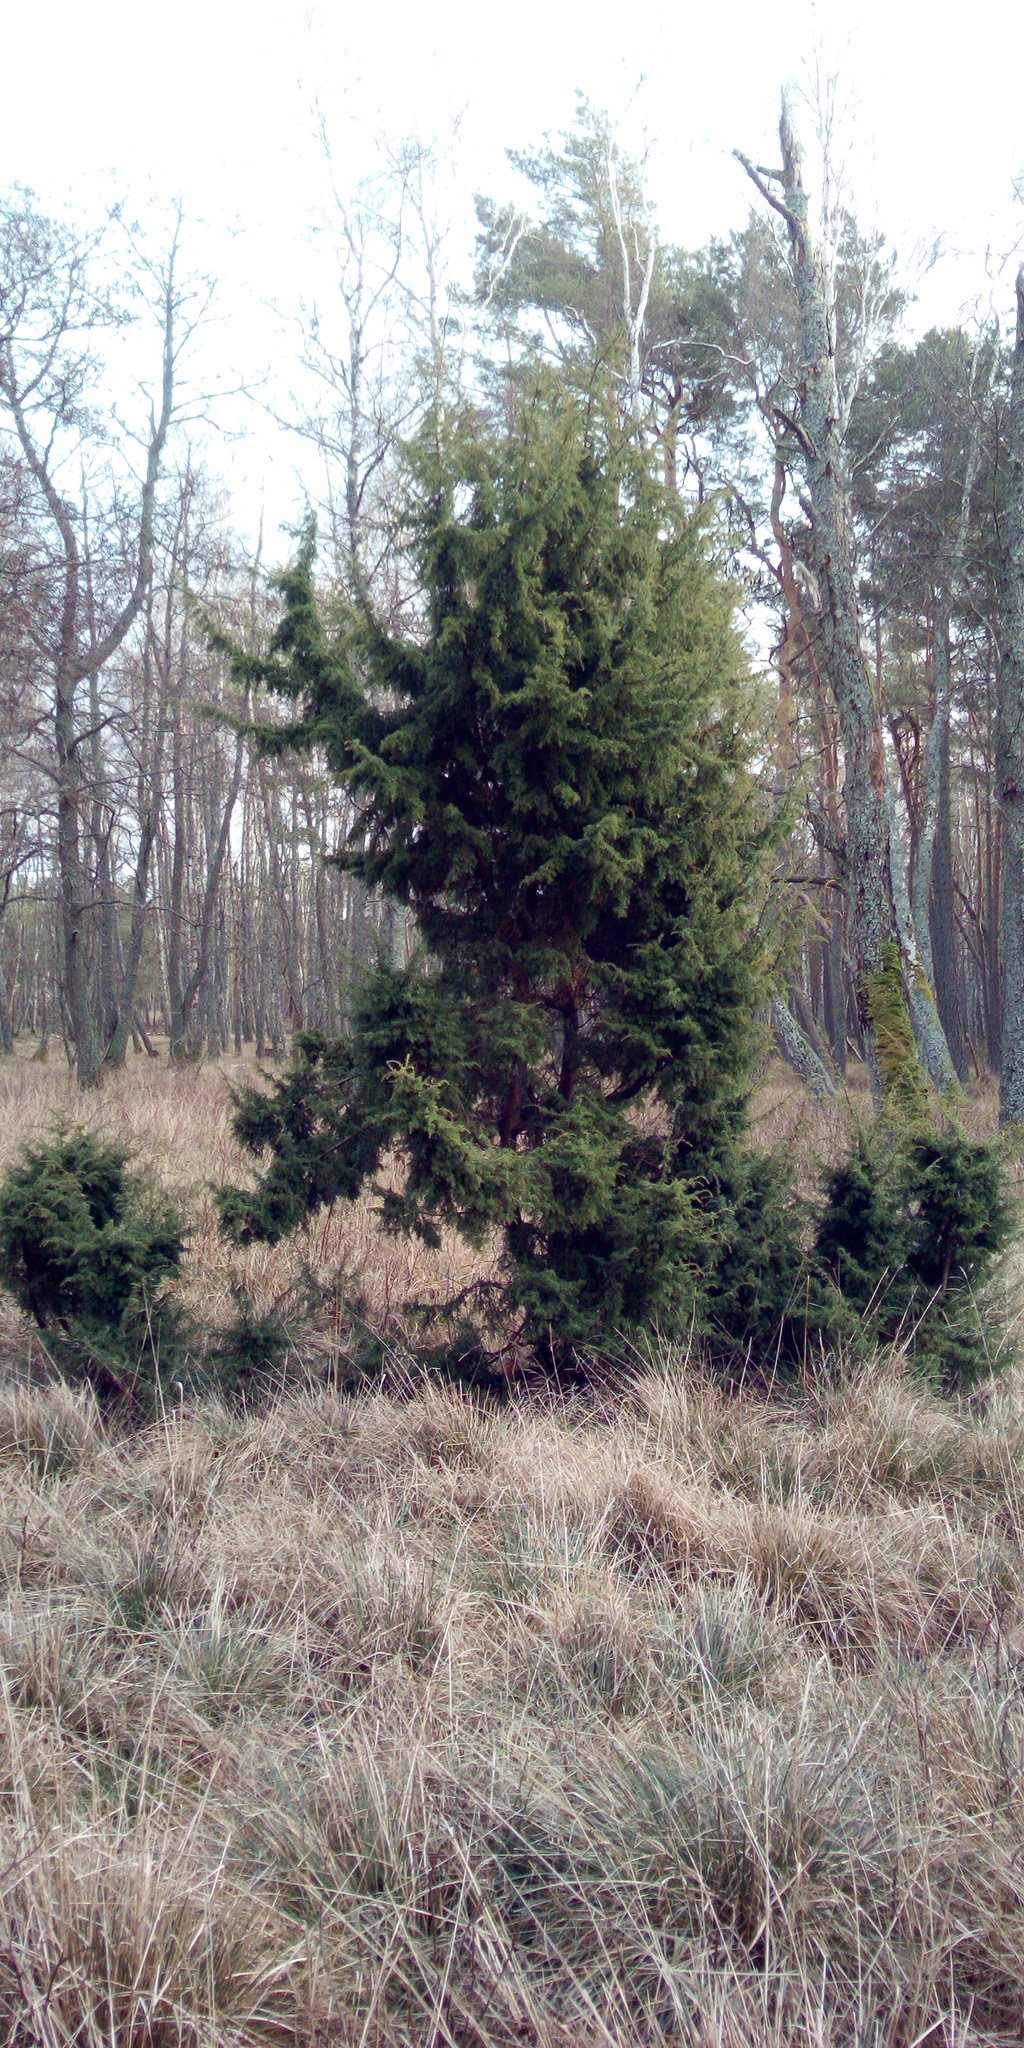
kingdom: Plantae
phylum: Tracheophyta
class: Pinopsida
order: Pinales
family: Cupressaceae
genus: Juniperus
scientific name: Juniperus communis
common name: Common juniper
